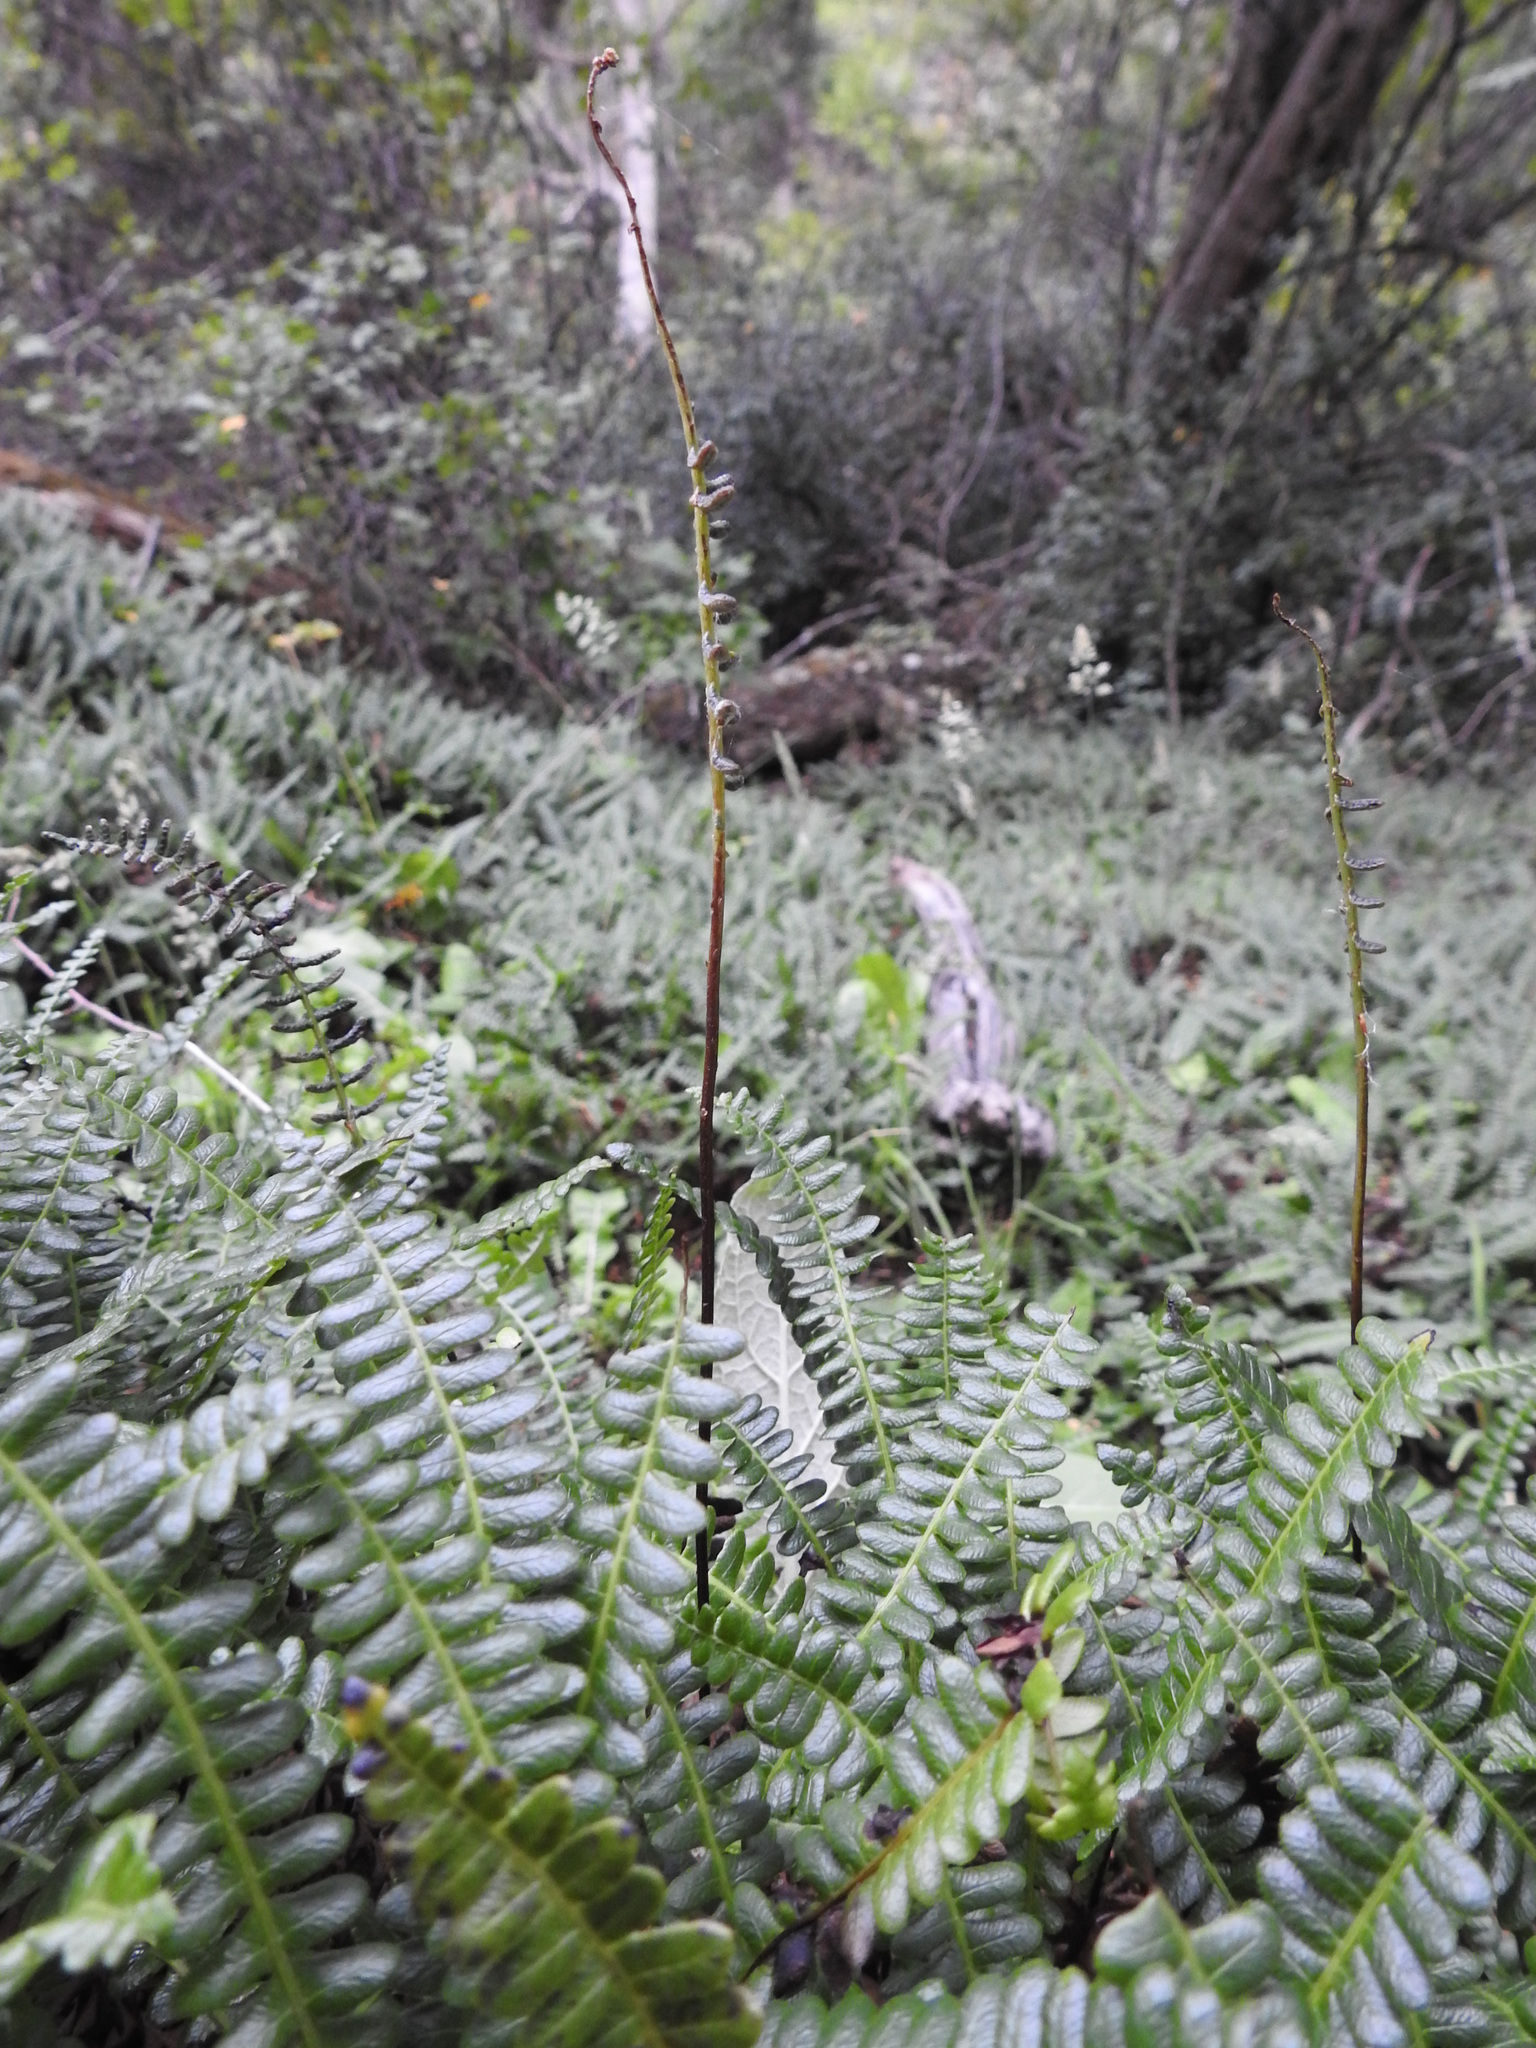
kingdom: Plantae
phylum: Tracheophyta
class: Polypodiopsida
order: Polypodiales
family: Blechnaceae
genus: Austroblechnum
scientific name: Austroblechnum penna-marina
